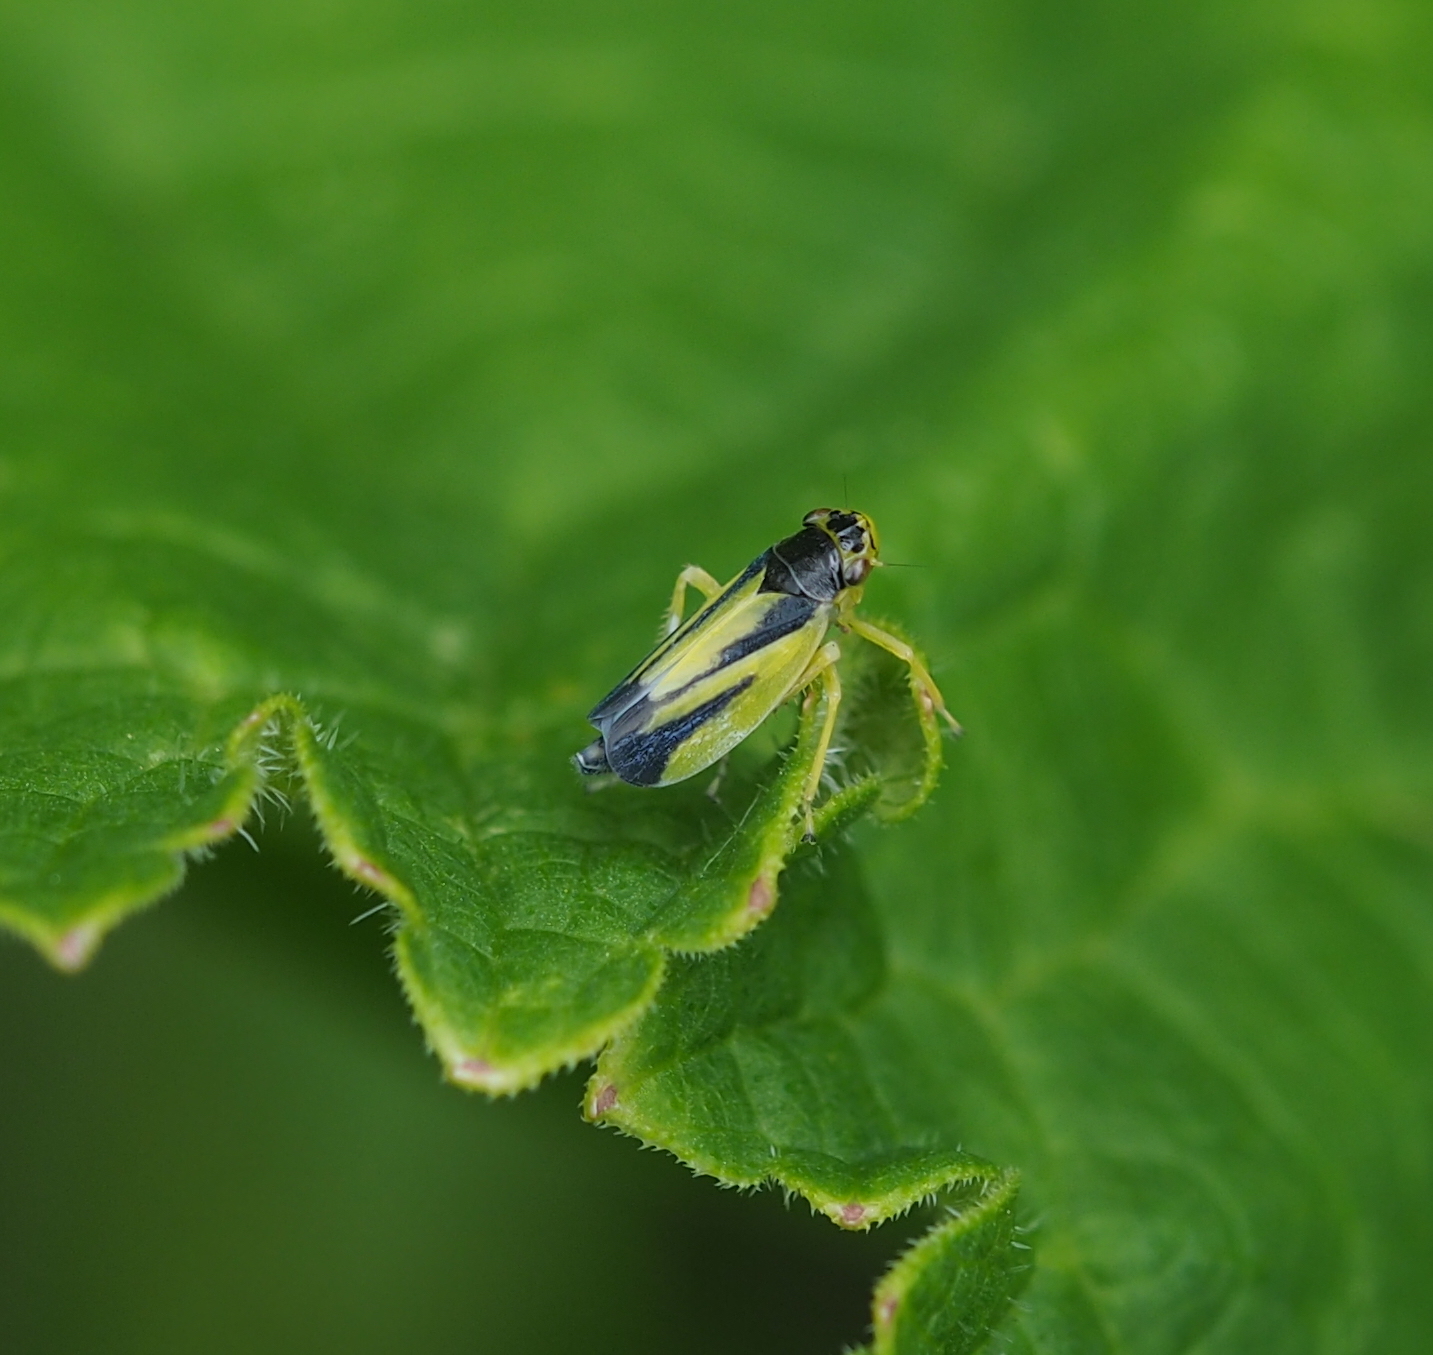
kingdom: Animalia
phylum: Arthropoda
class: Insecta
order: Hemiptera
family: Cicadellidae
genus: Evacanthus
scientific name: Evacanthus interruptus
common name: Leafhopper
